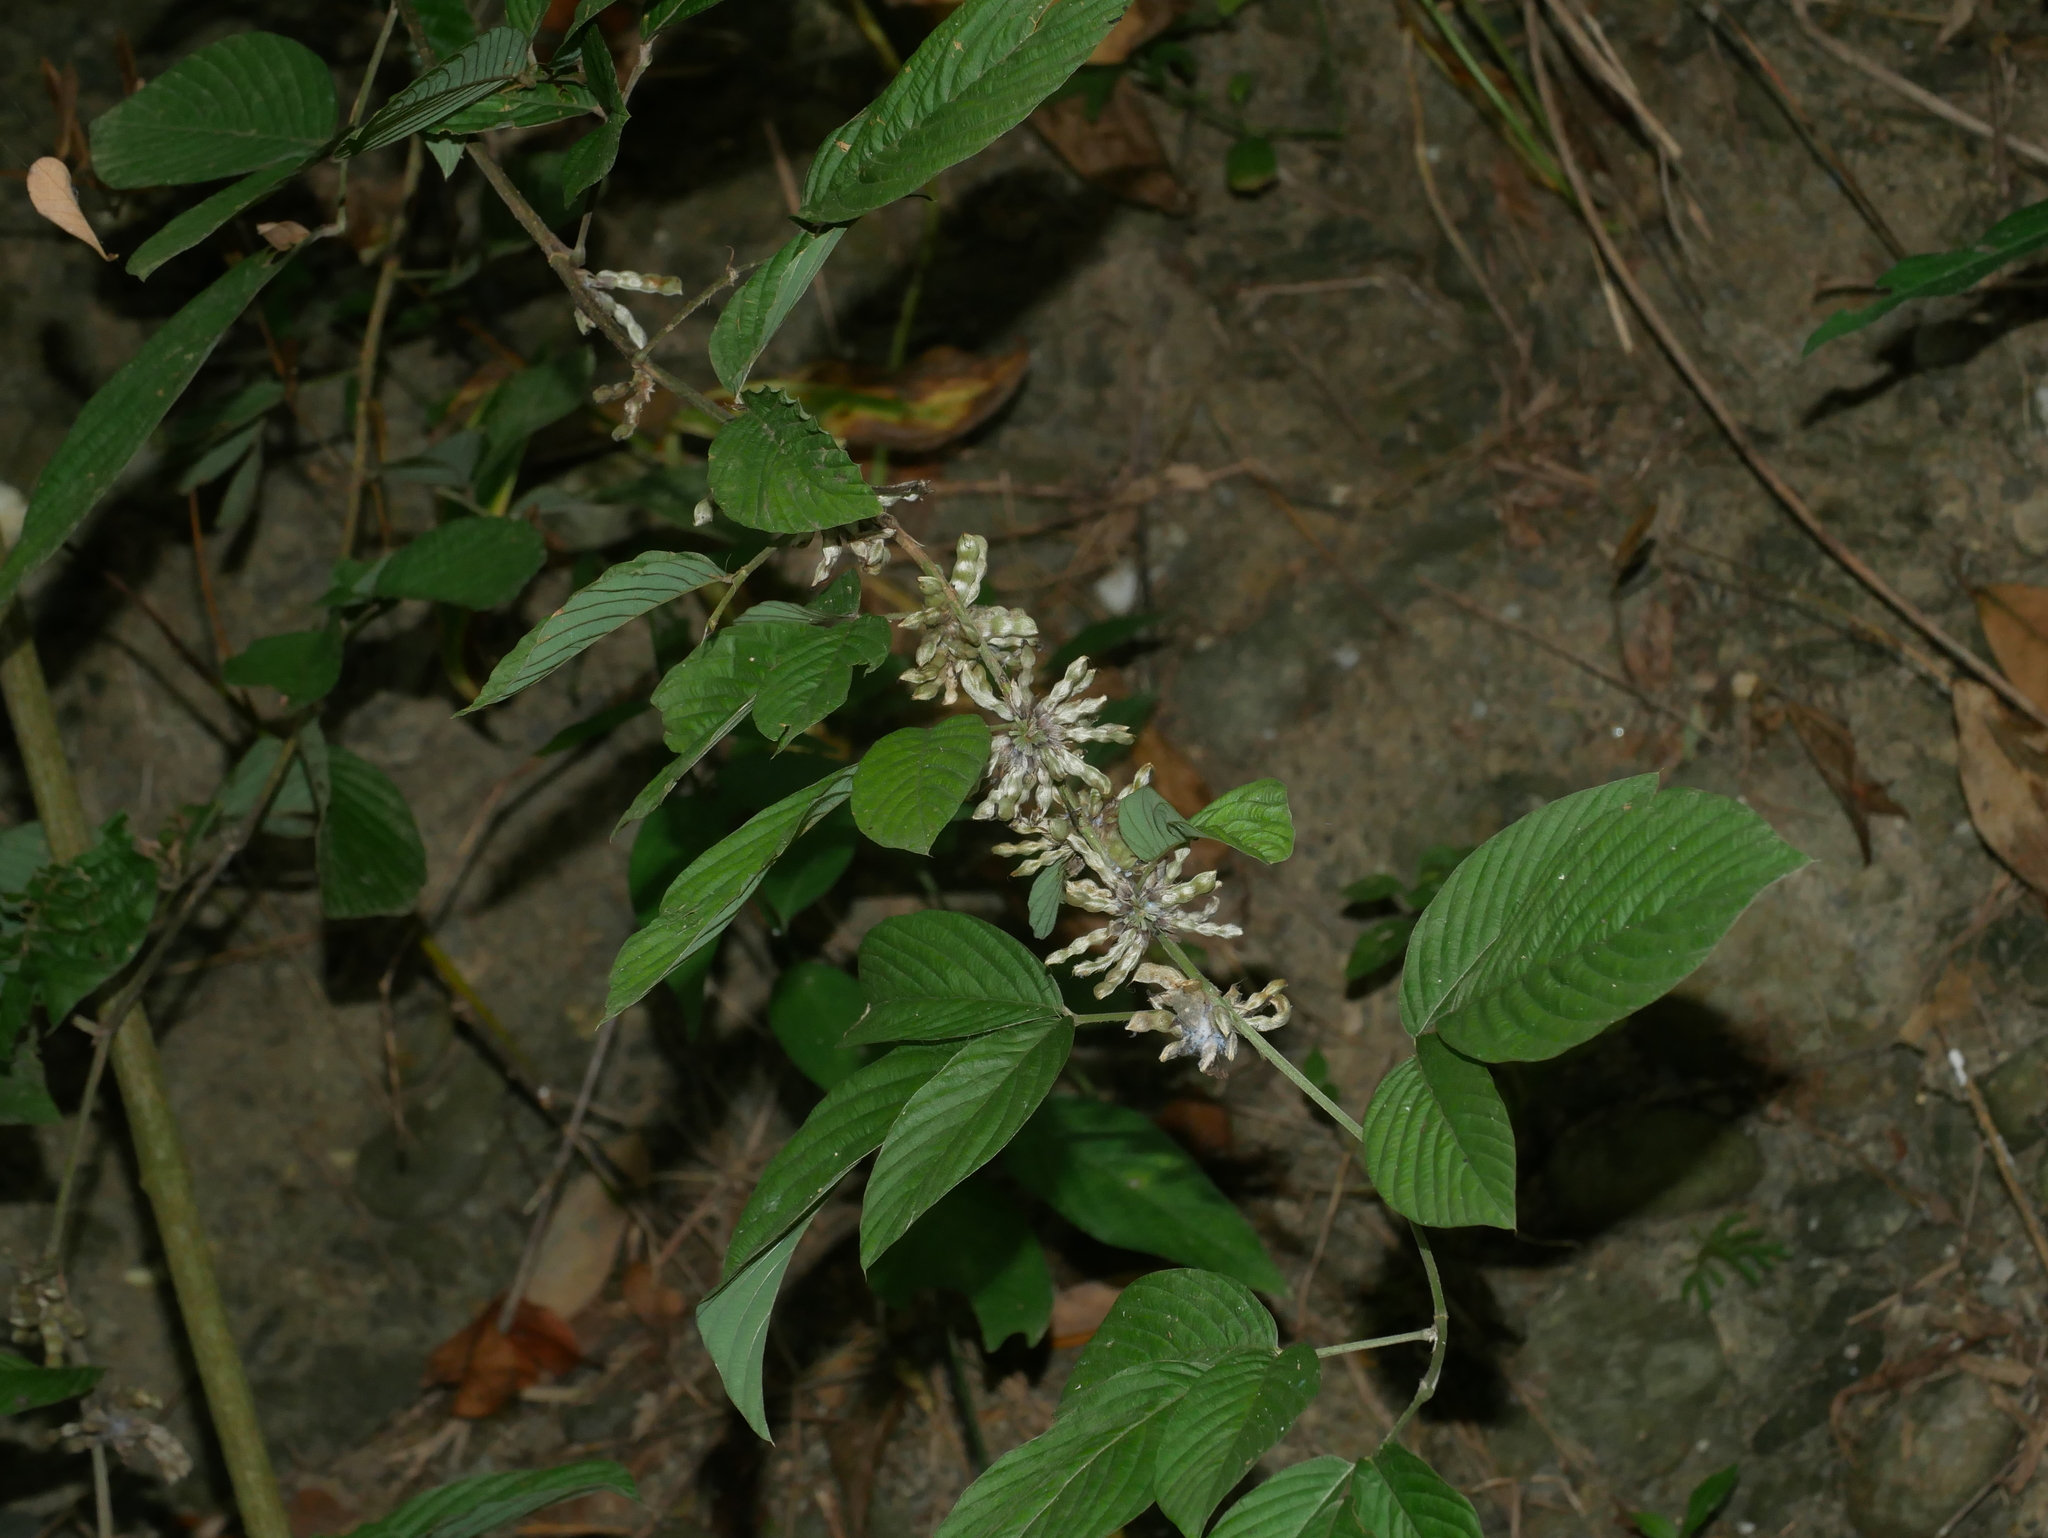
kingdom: Plantae
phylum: Tracheophyta
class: Magnoliopsida
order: Fabales
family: Fabaceae
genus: Dendrolobium
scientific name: Dendrolobium triangulare
